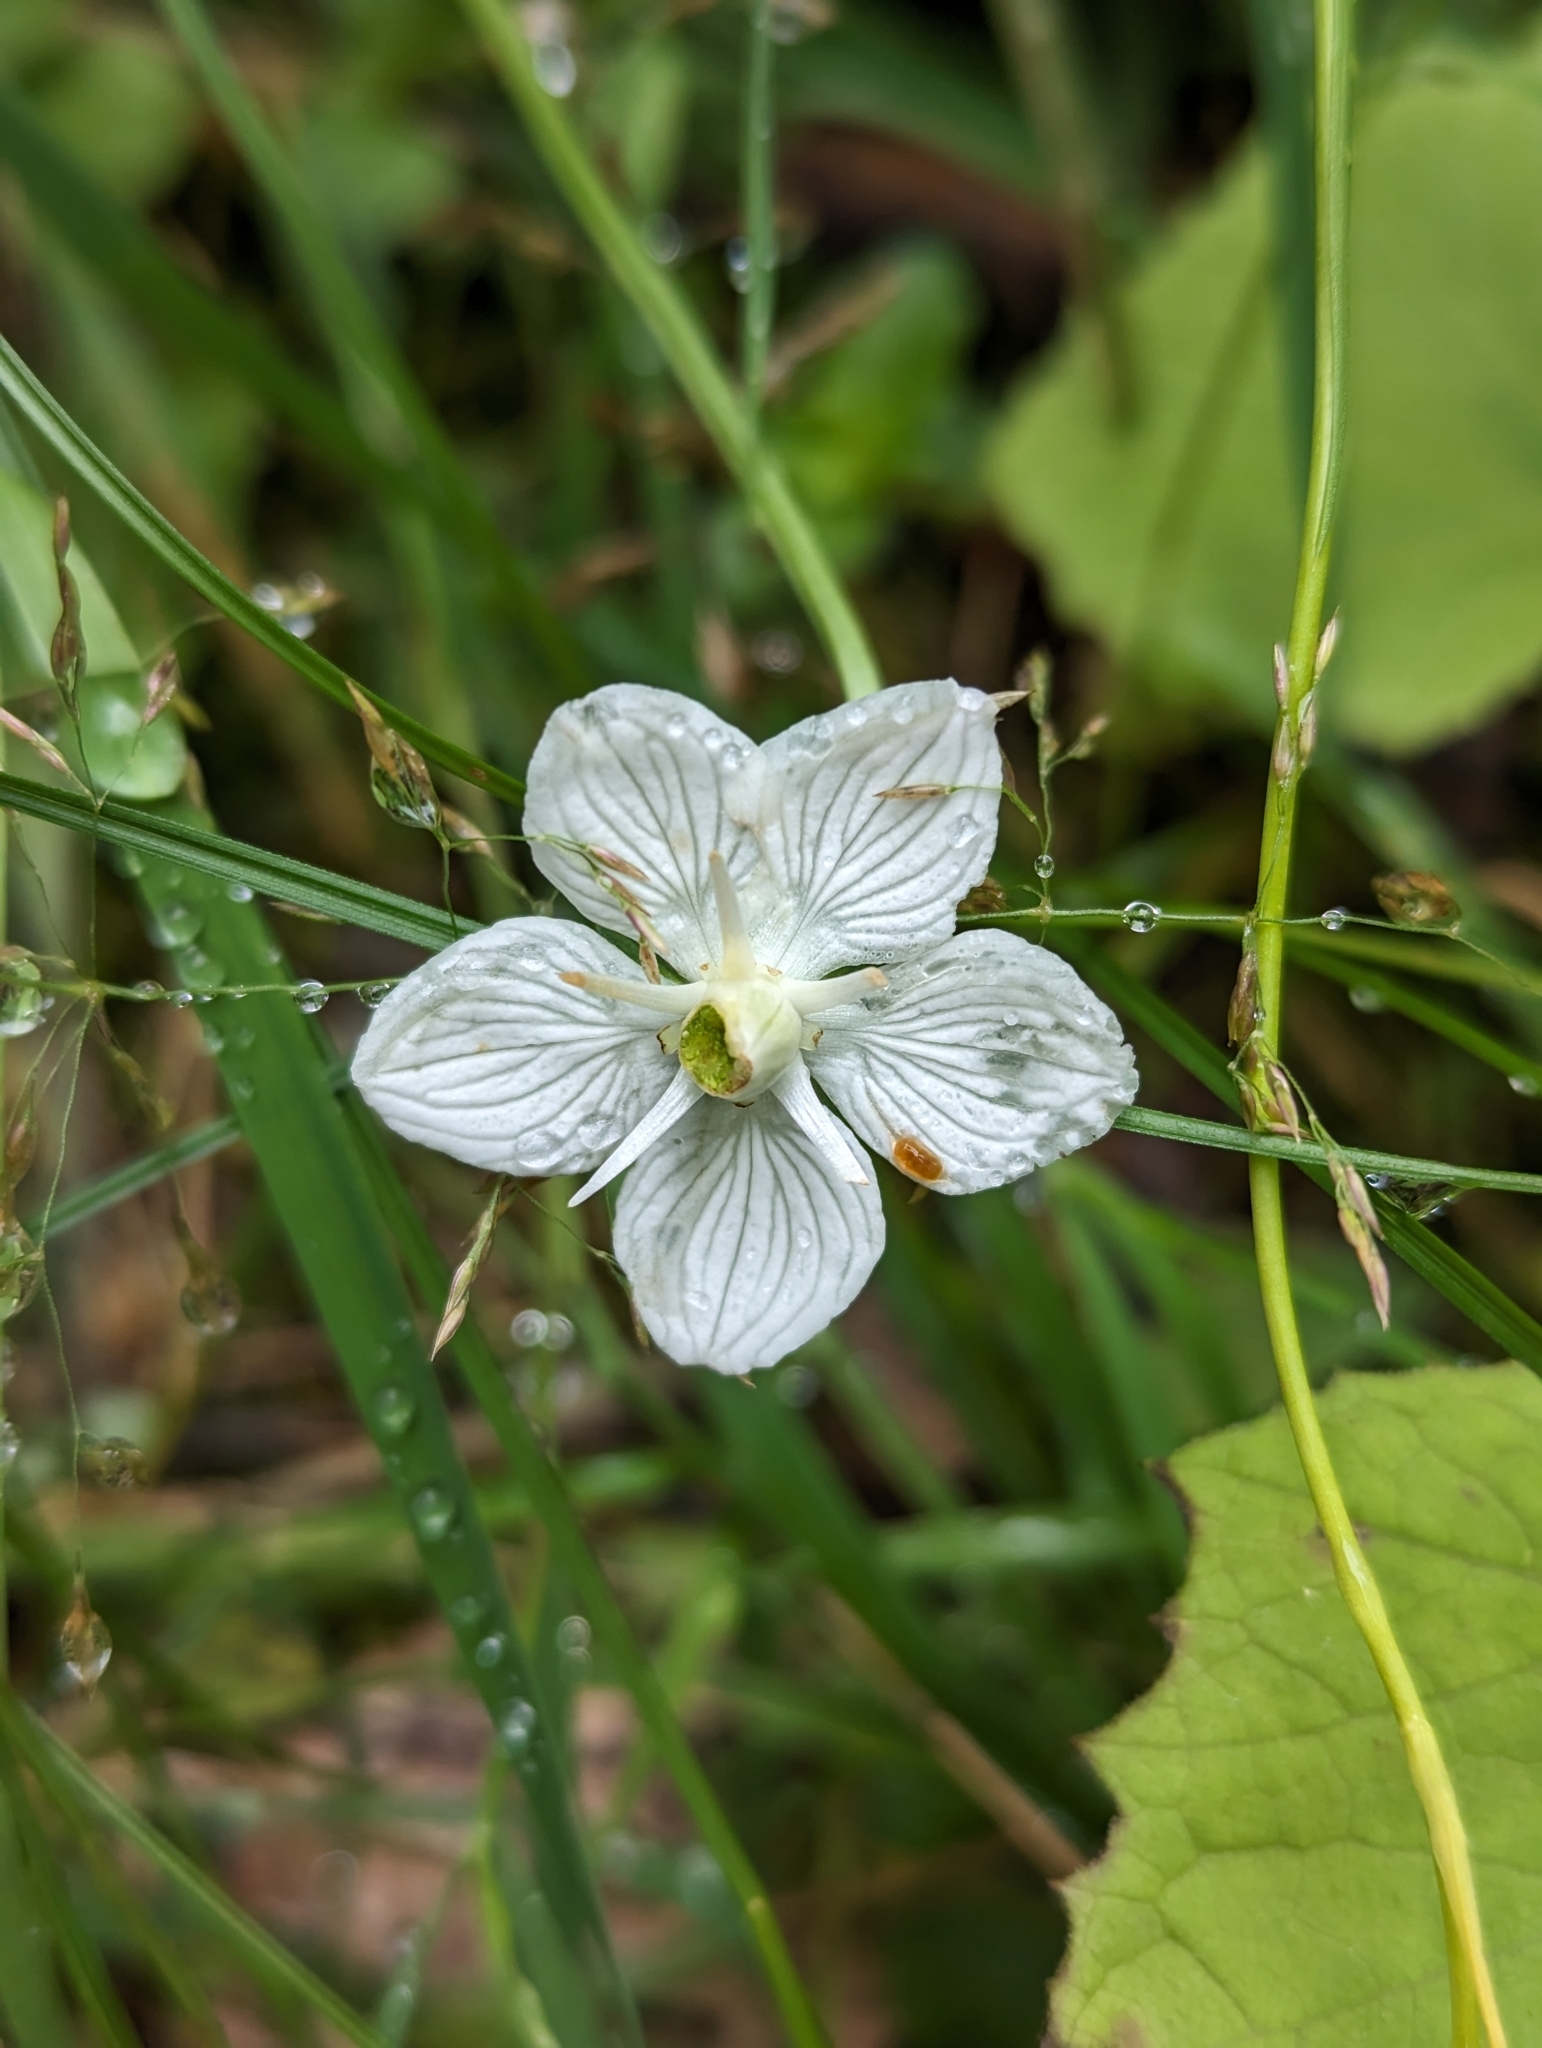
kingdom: Plantae
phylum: Tracheophyta
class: Magnoliopsida
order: Celastrales
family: Parnassiaceae
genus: Parnassia
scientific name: Parnassia palustris
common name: Grass-of-parnassus
